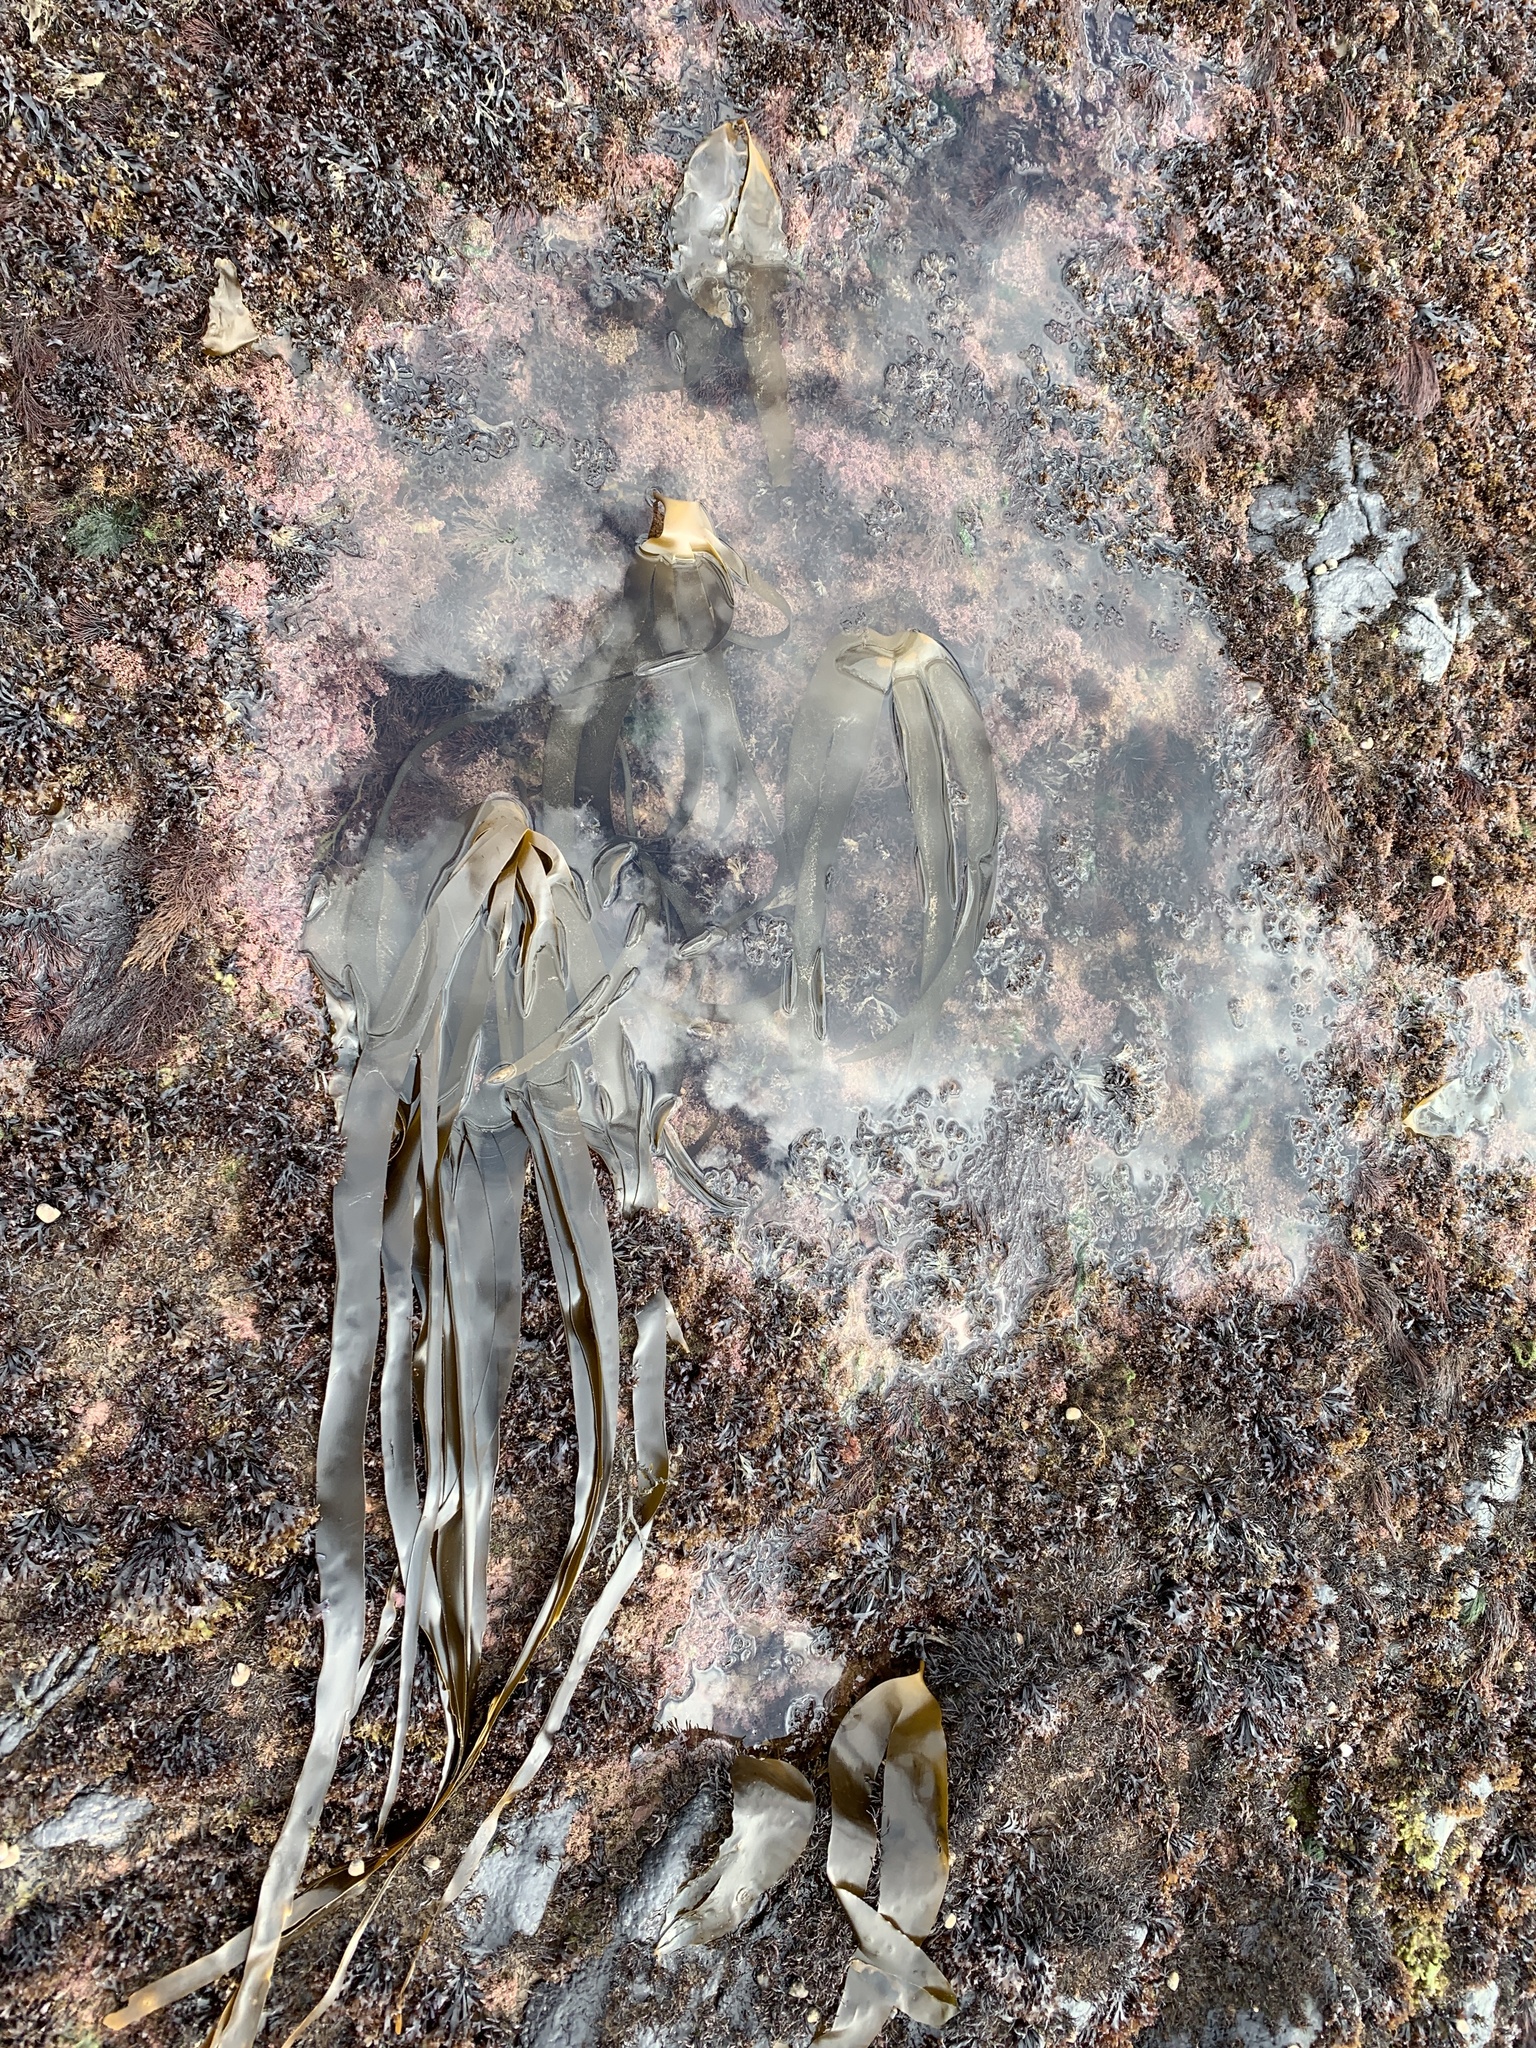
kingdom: Chromista
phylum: Ochrophyta
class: Phaeophyceae
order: Laminariales
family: Laminariaceae
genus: Laminaria
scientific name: Laminaria digitata
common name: Oarweed
